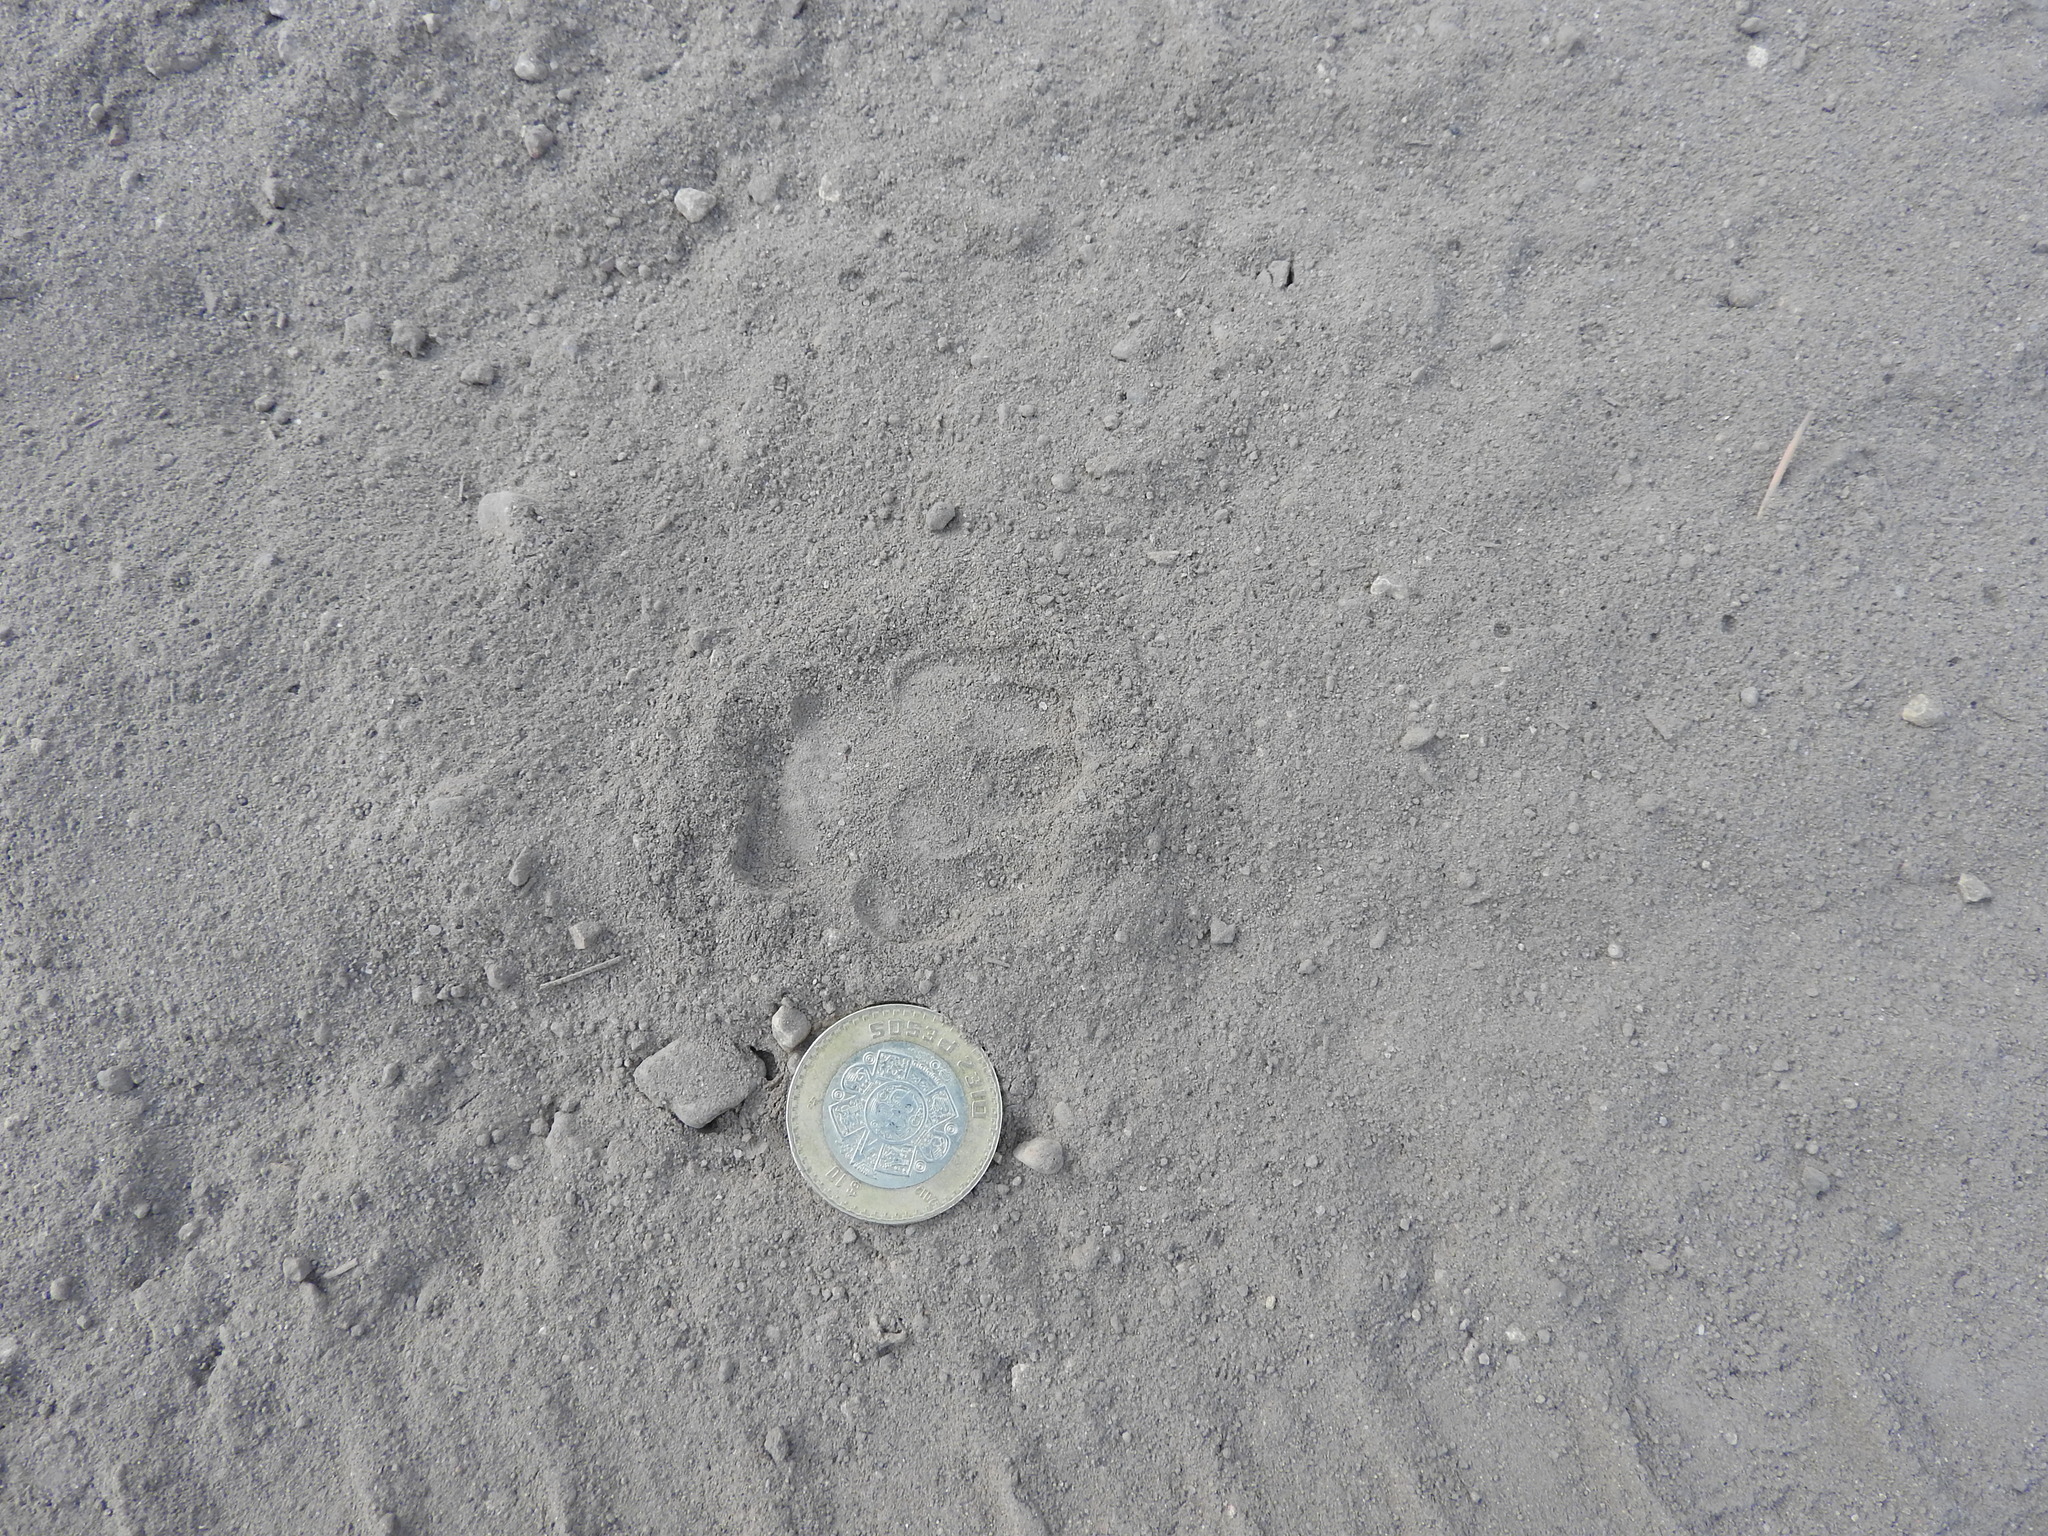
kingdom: Animalia
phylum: Chordata
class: Mammalia
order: Carnivora
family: Canidae
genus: Urocyon
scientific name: Urocyon cinereoargenteus
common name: Gray fox
